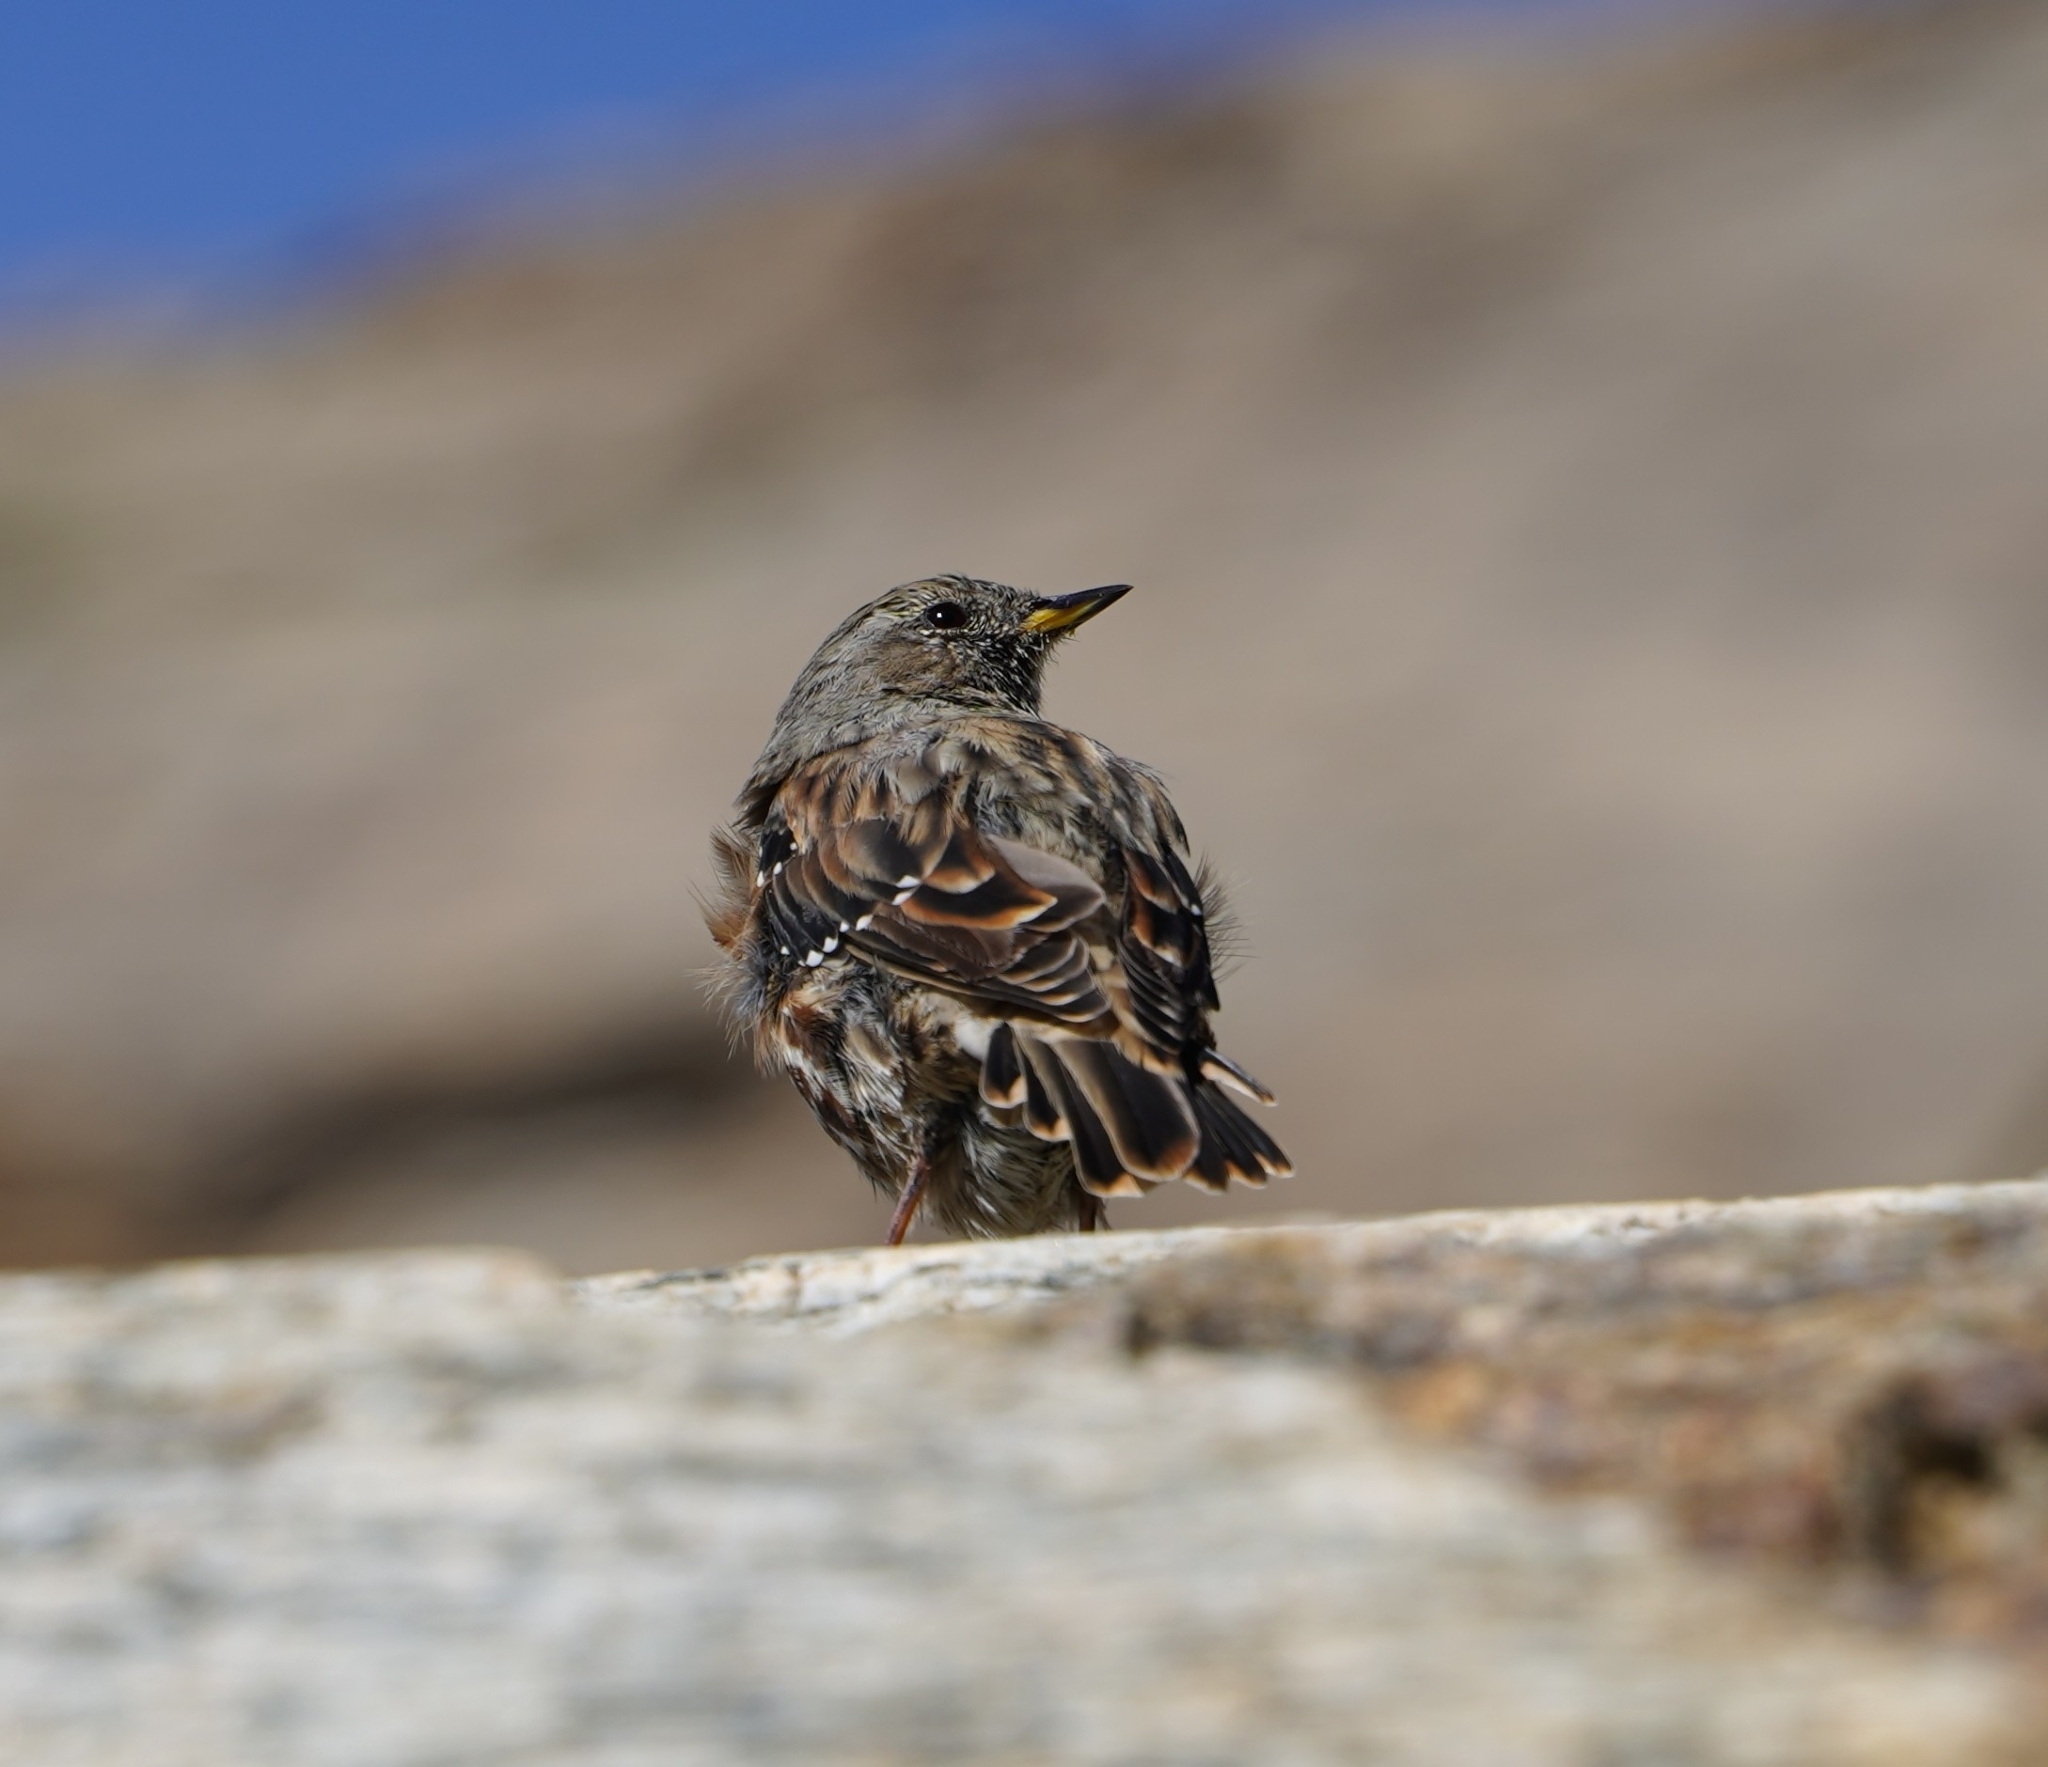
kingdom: Animalia
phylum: Chordata
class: Aves
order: Passeriformes
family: Prunellidae
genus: Prunella
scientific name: Prunella collaris
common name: Alpine accentor
